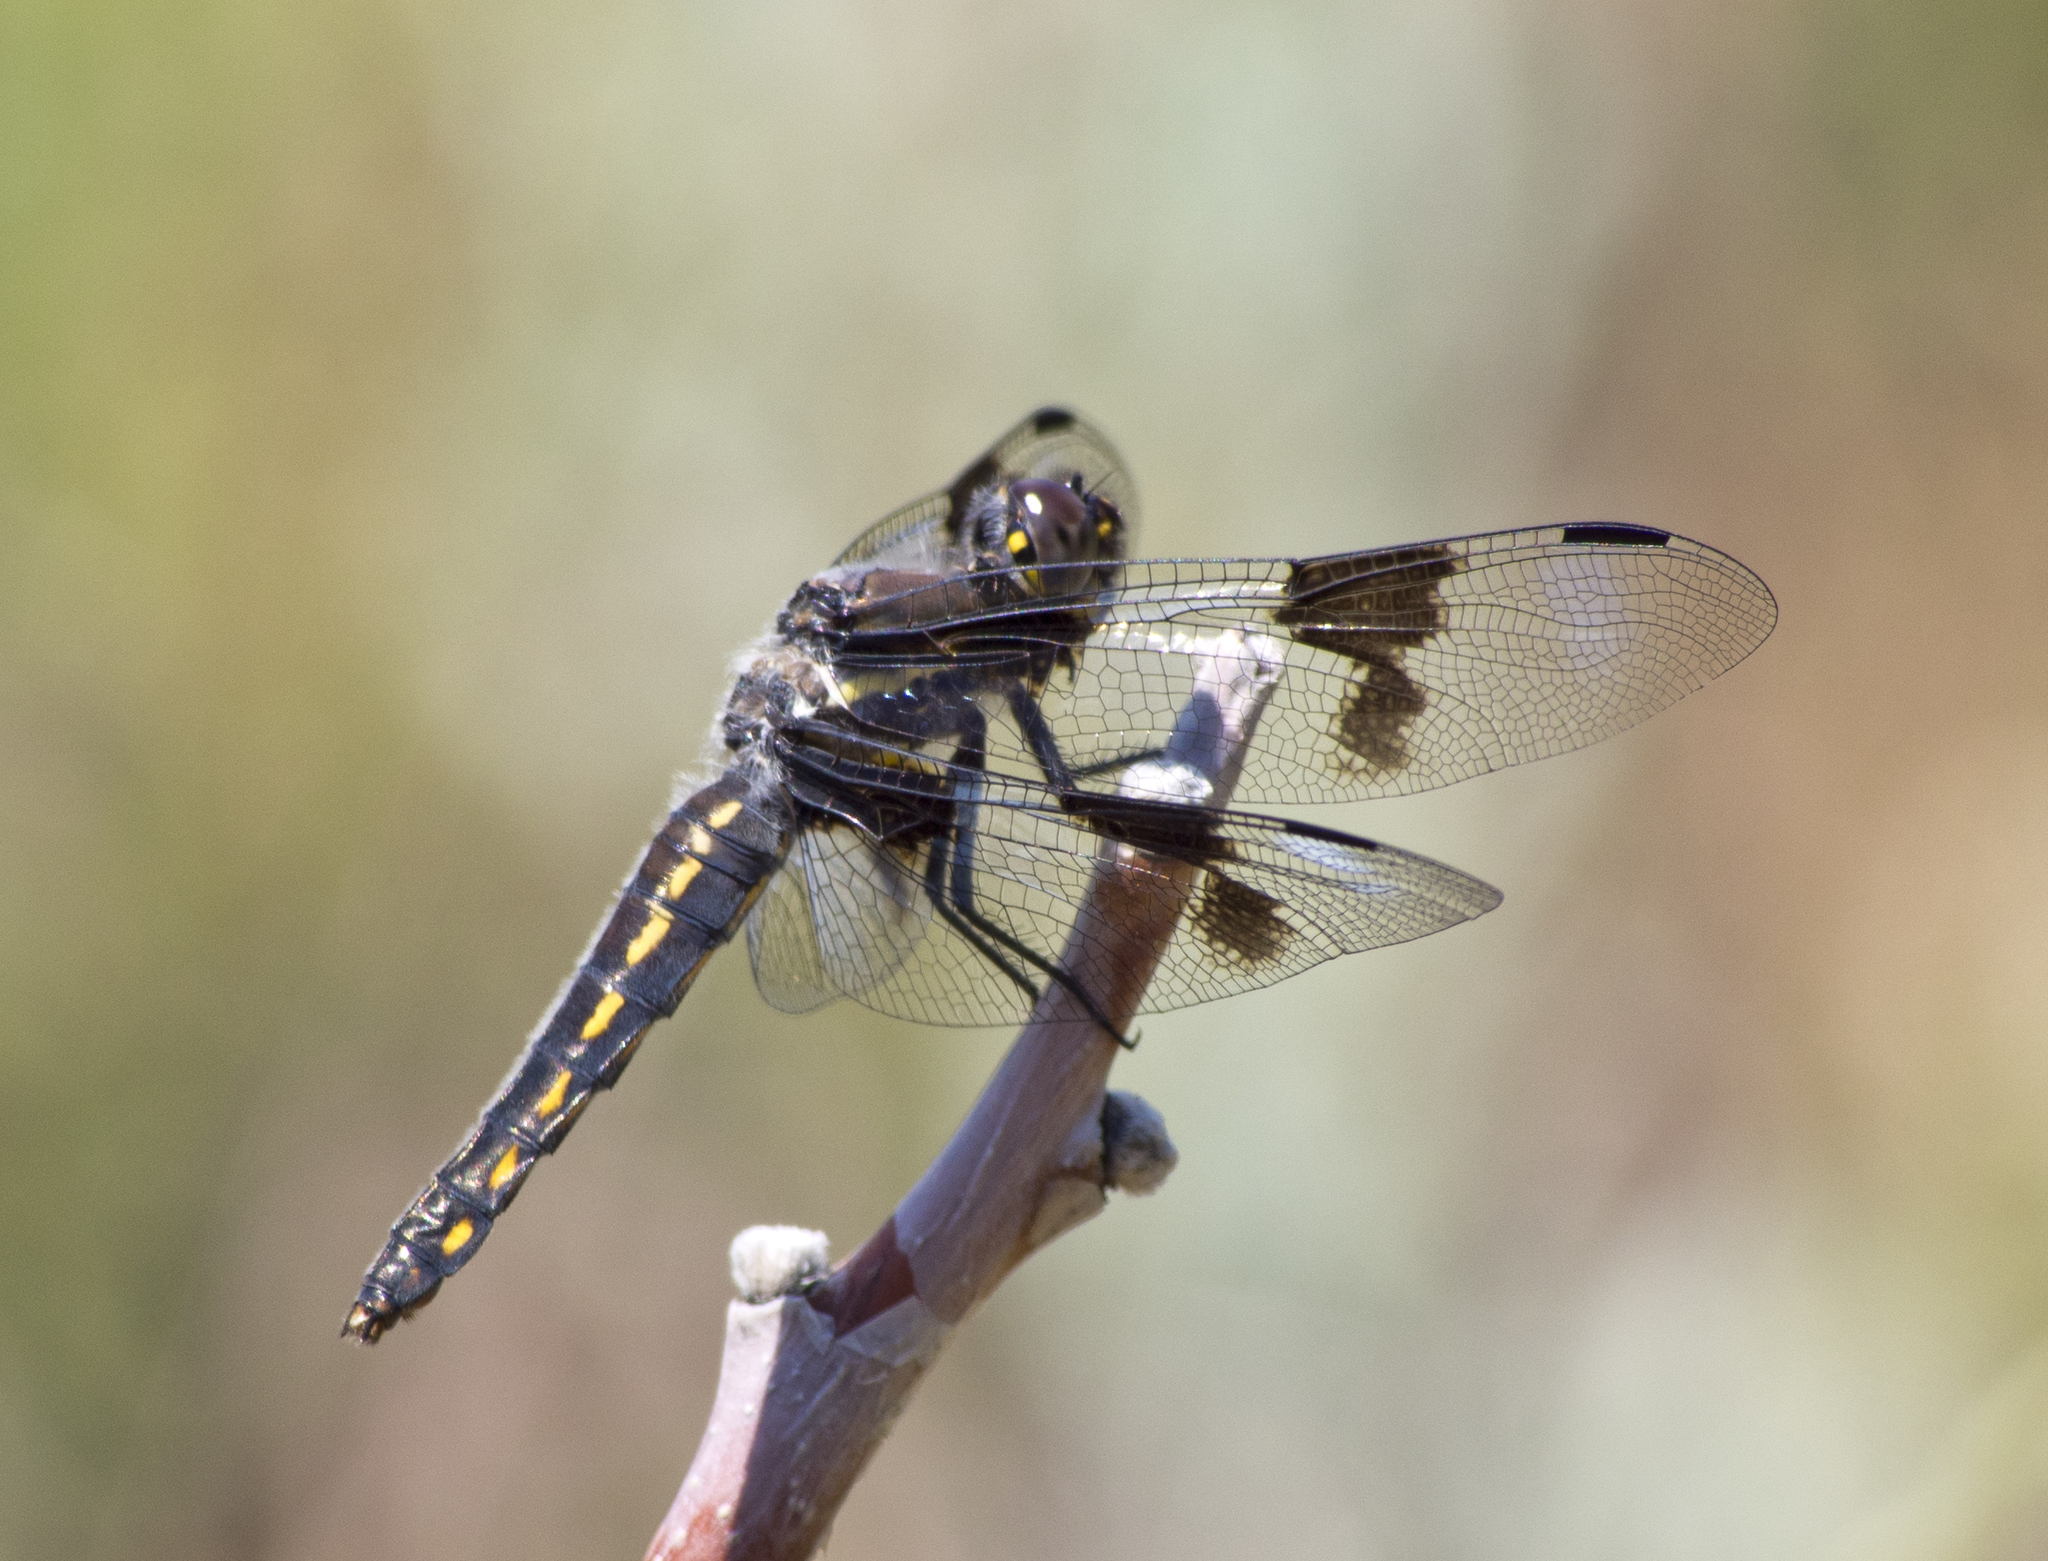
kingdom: Animalia
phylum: Arthropoda
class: Insecta
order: Odonata
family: Libellulidae
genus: Libellula
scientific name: Libellula forensis
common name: Eight-spotted skimmer
